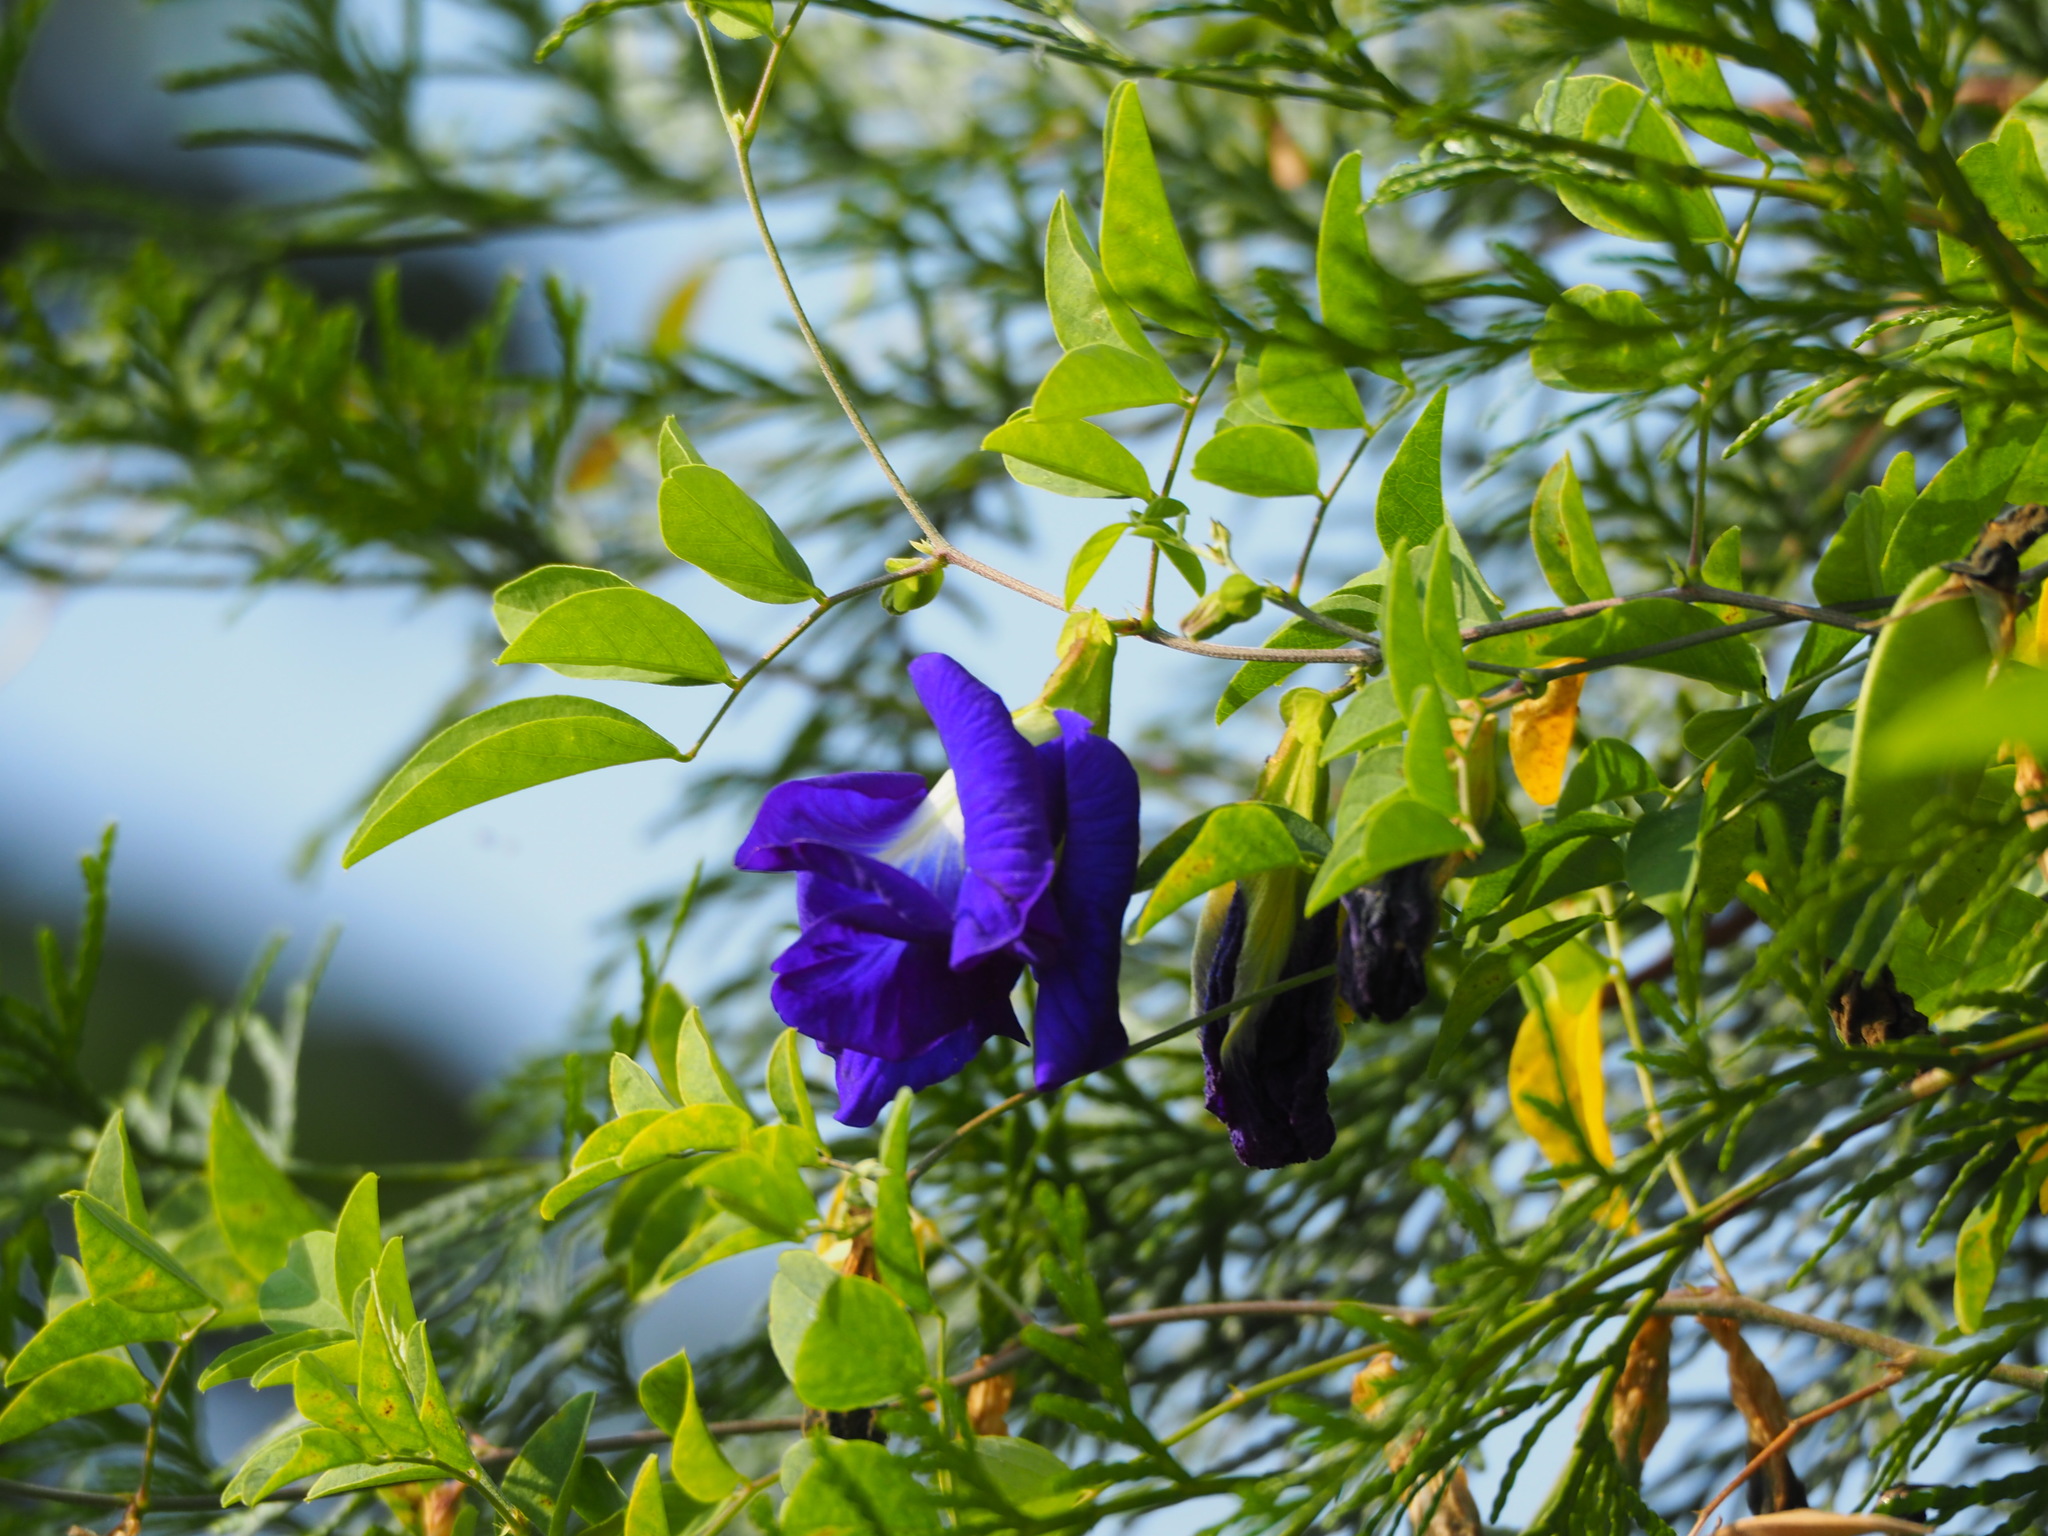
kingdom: Plantae
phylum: Tracheophyta
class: Magnoliopsida
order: Fabales
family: Fabaceae
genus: Clitoria
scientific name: Clitoria ternatea
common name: Asian pigeonwings
